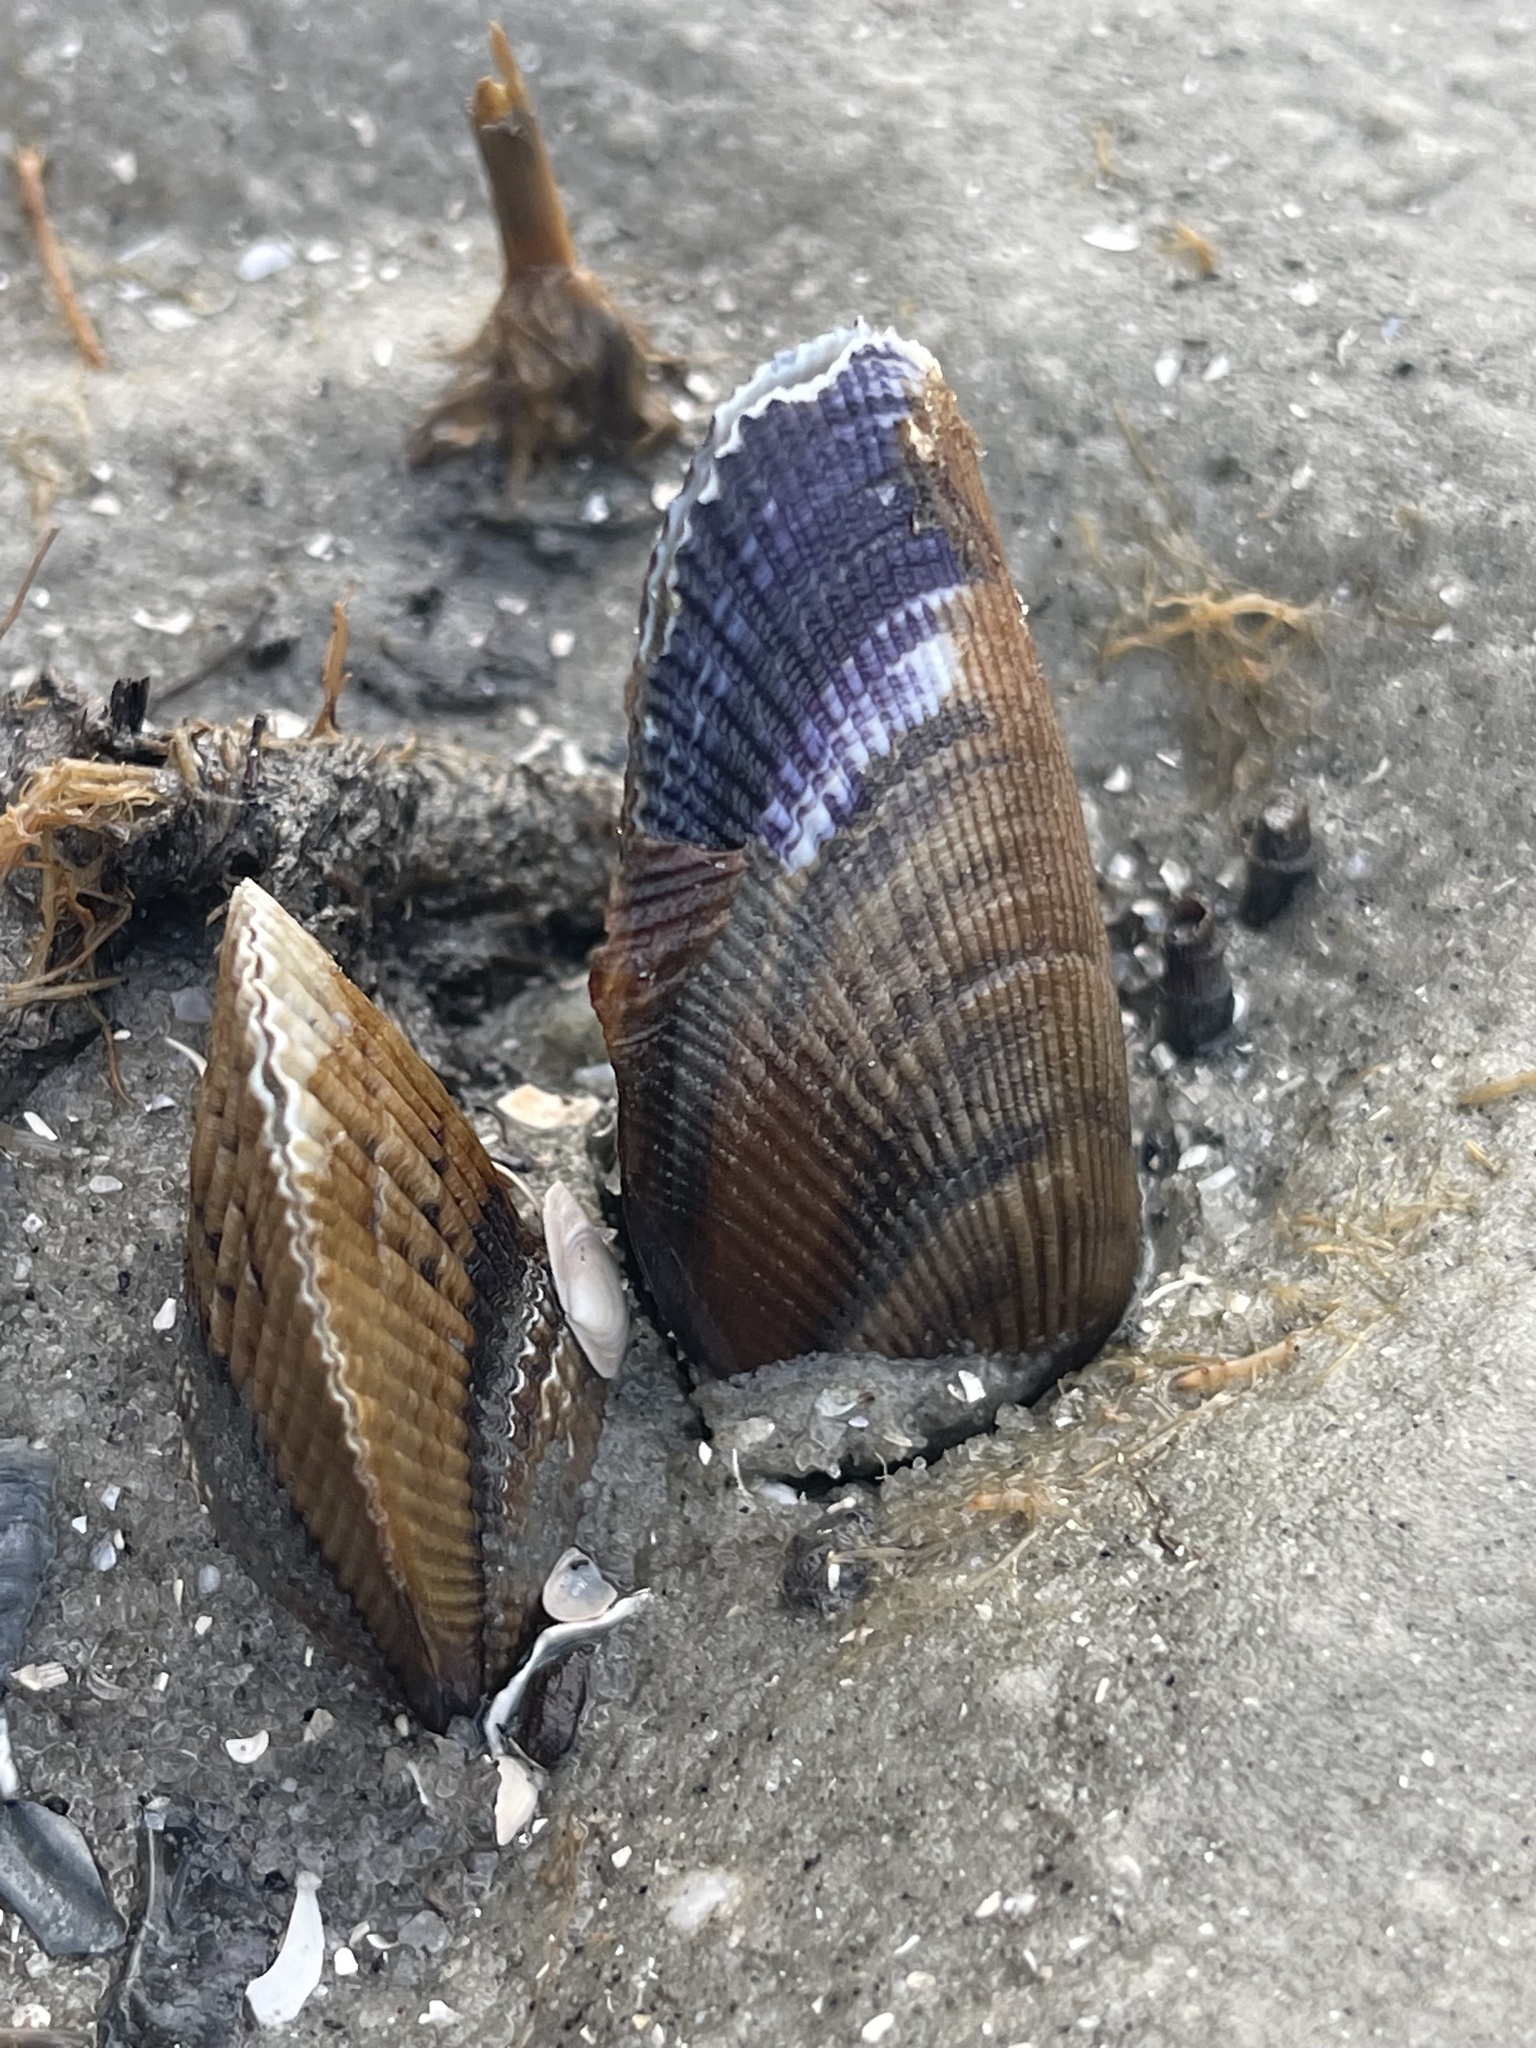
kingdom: Animalia
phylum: Mollusca
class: Bivalvia
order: Mytilida
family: Mytilidae
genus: Geukensia
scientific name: Geukensia demissa
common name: Ribbed mussel
